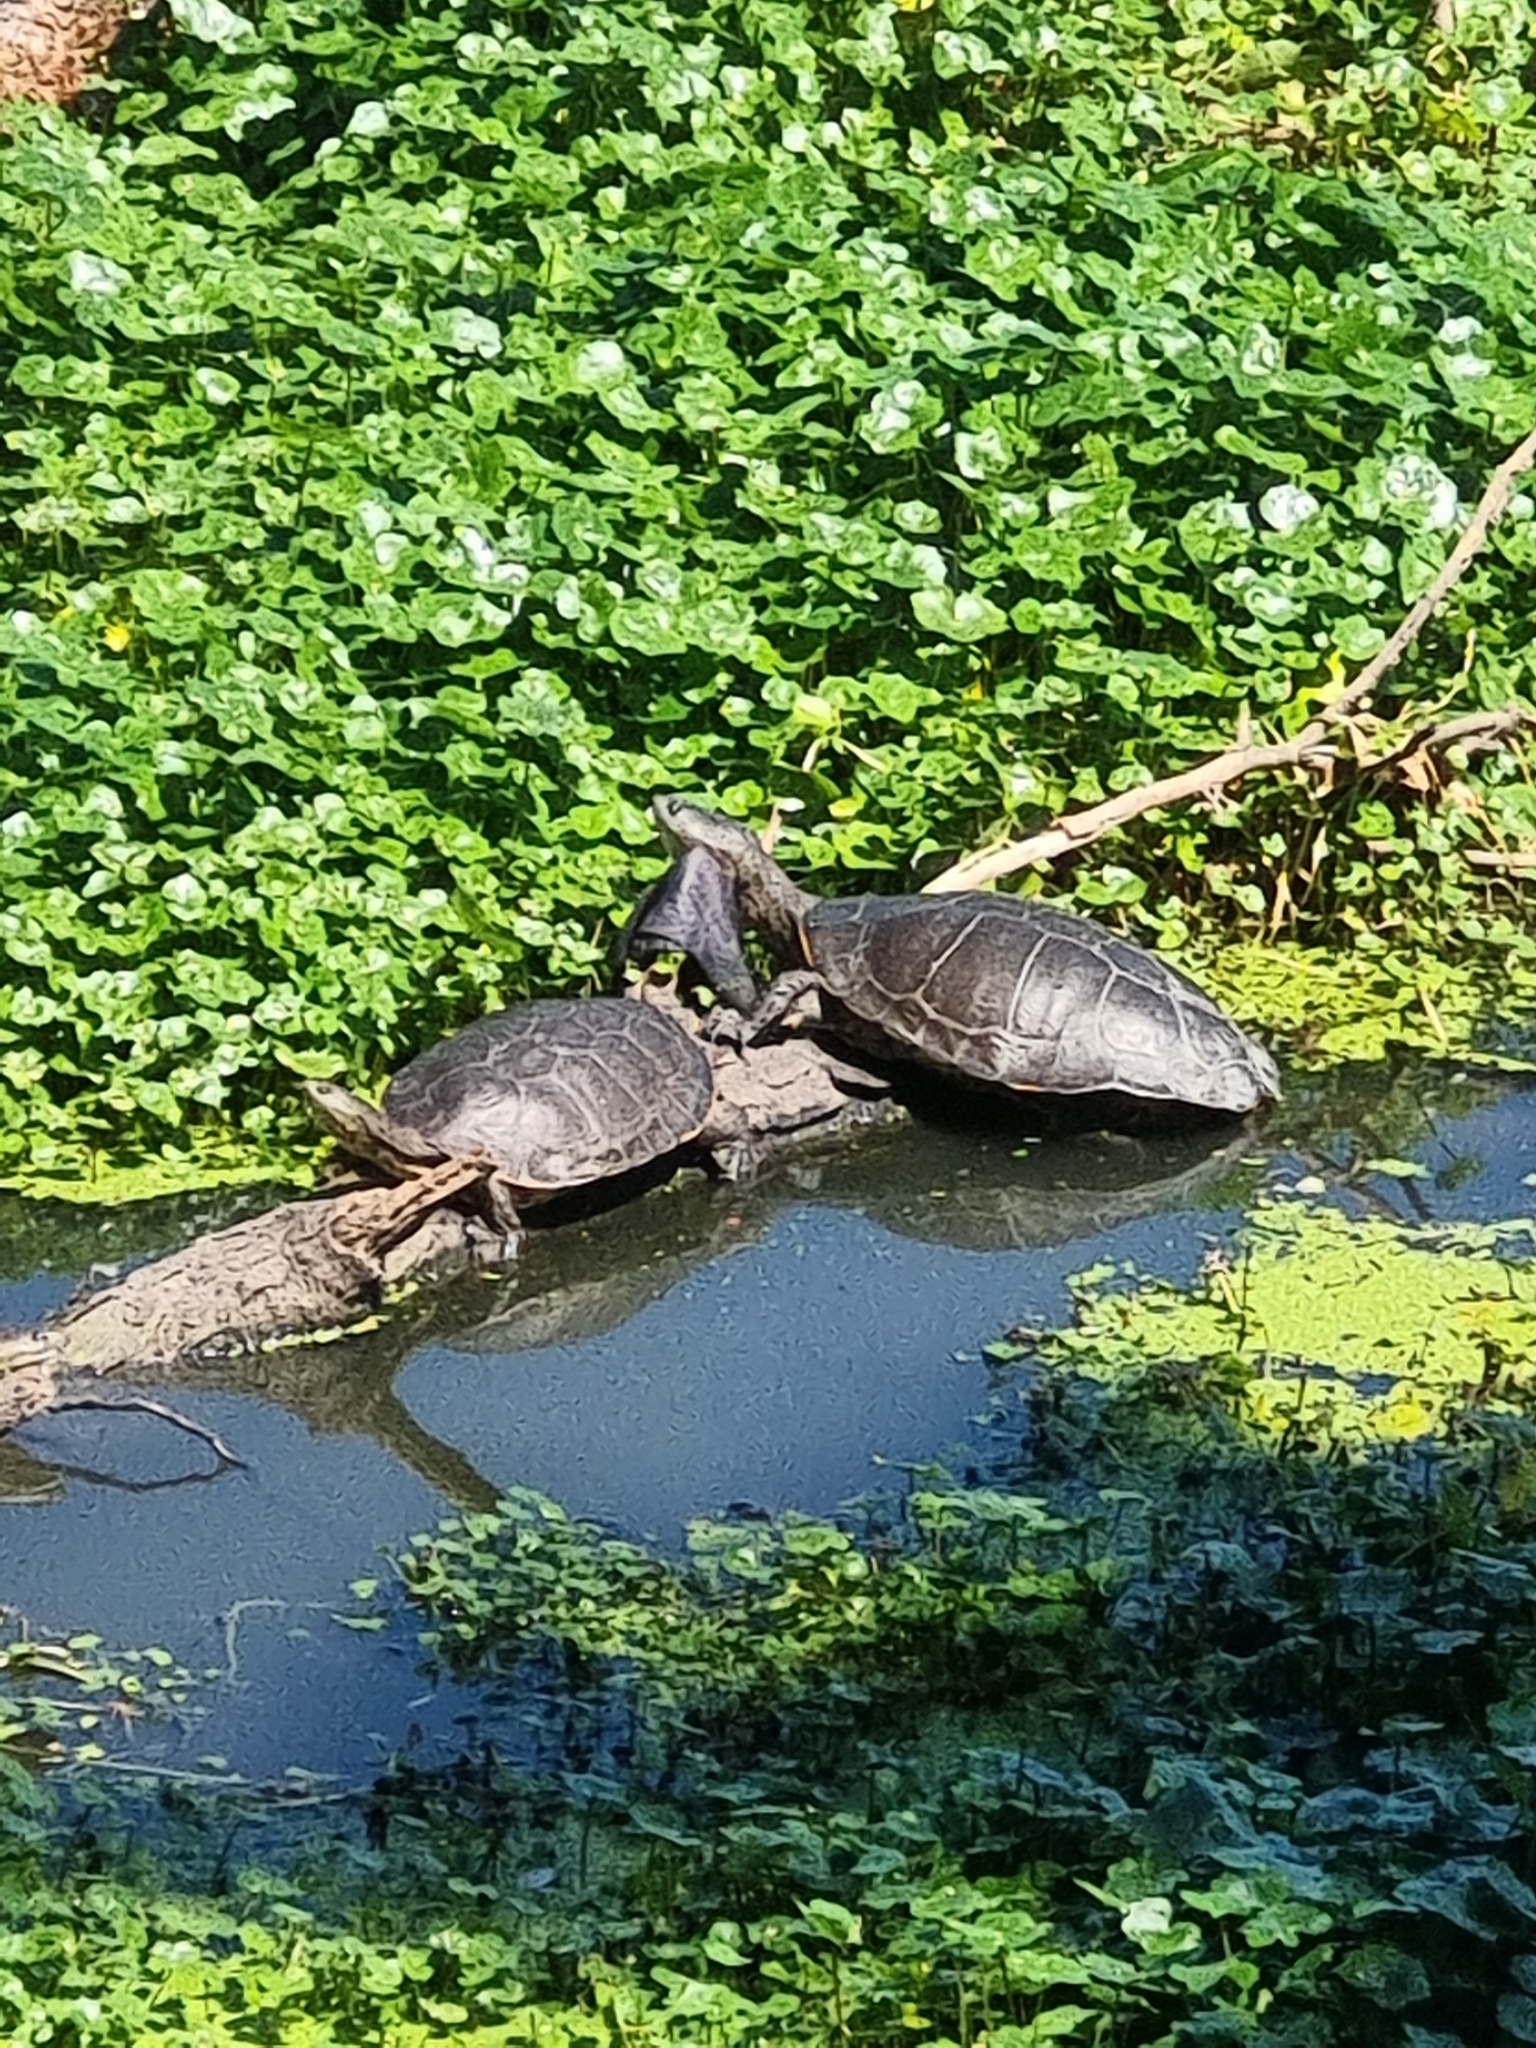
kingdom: Animalia
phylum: Chordata
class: Testudines
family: Chelidae
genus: Phrynops
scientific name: Phrynops hilarii
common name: Side-necked turtle of saint hillaire
